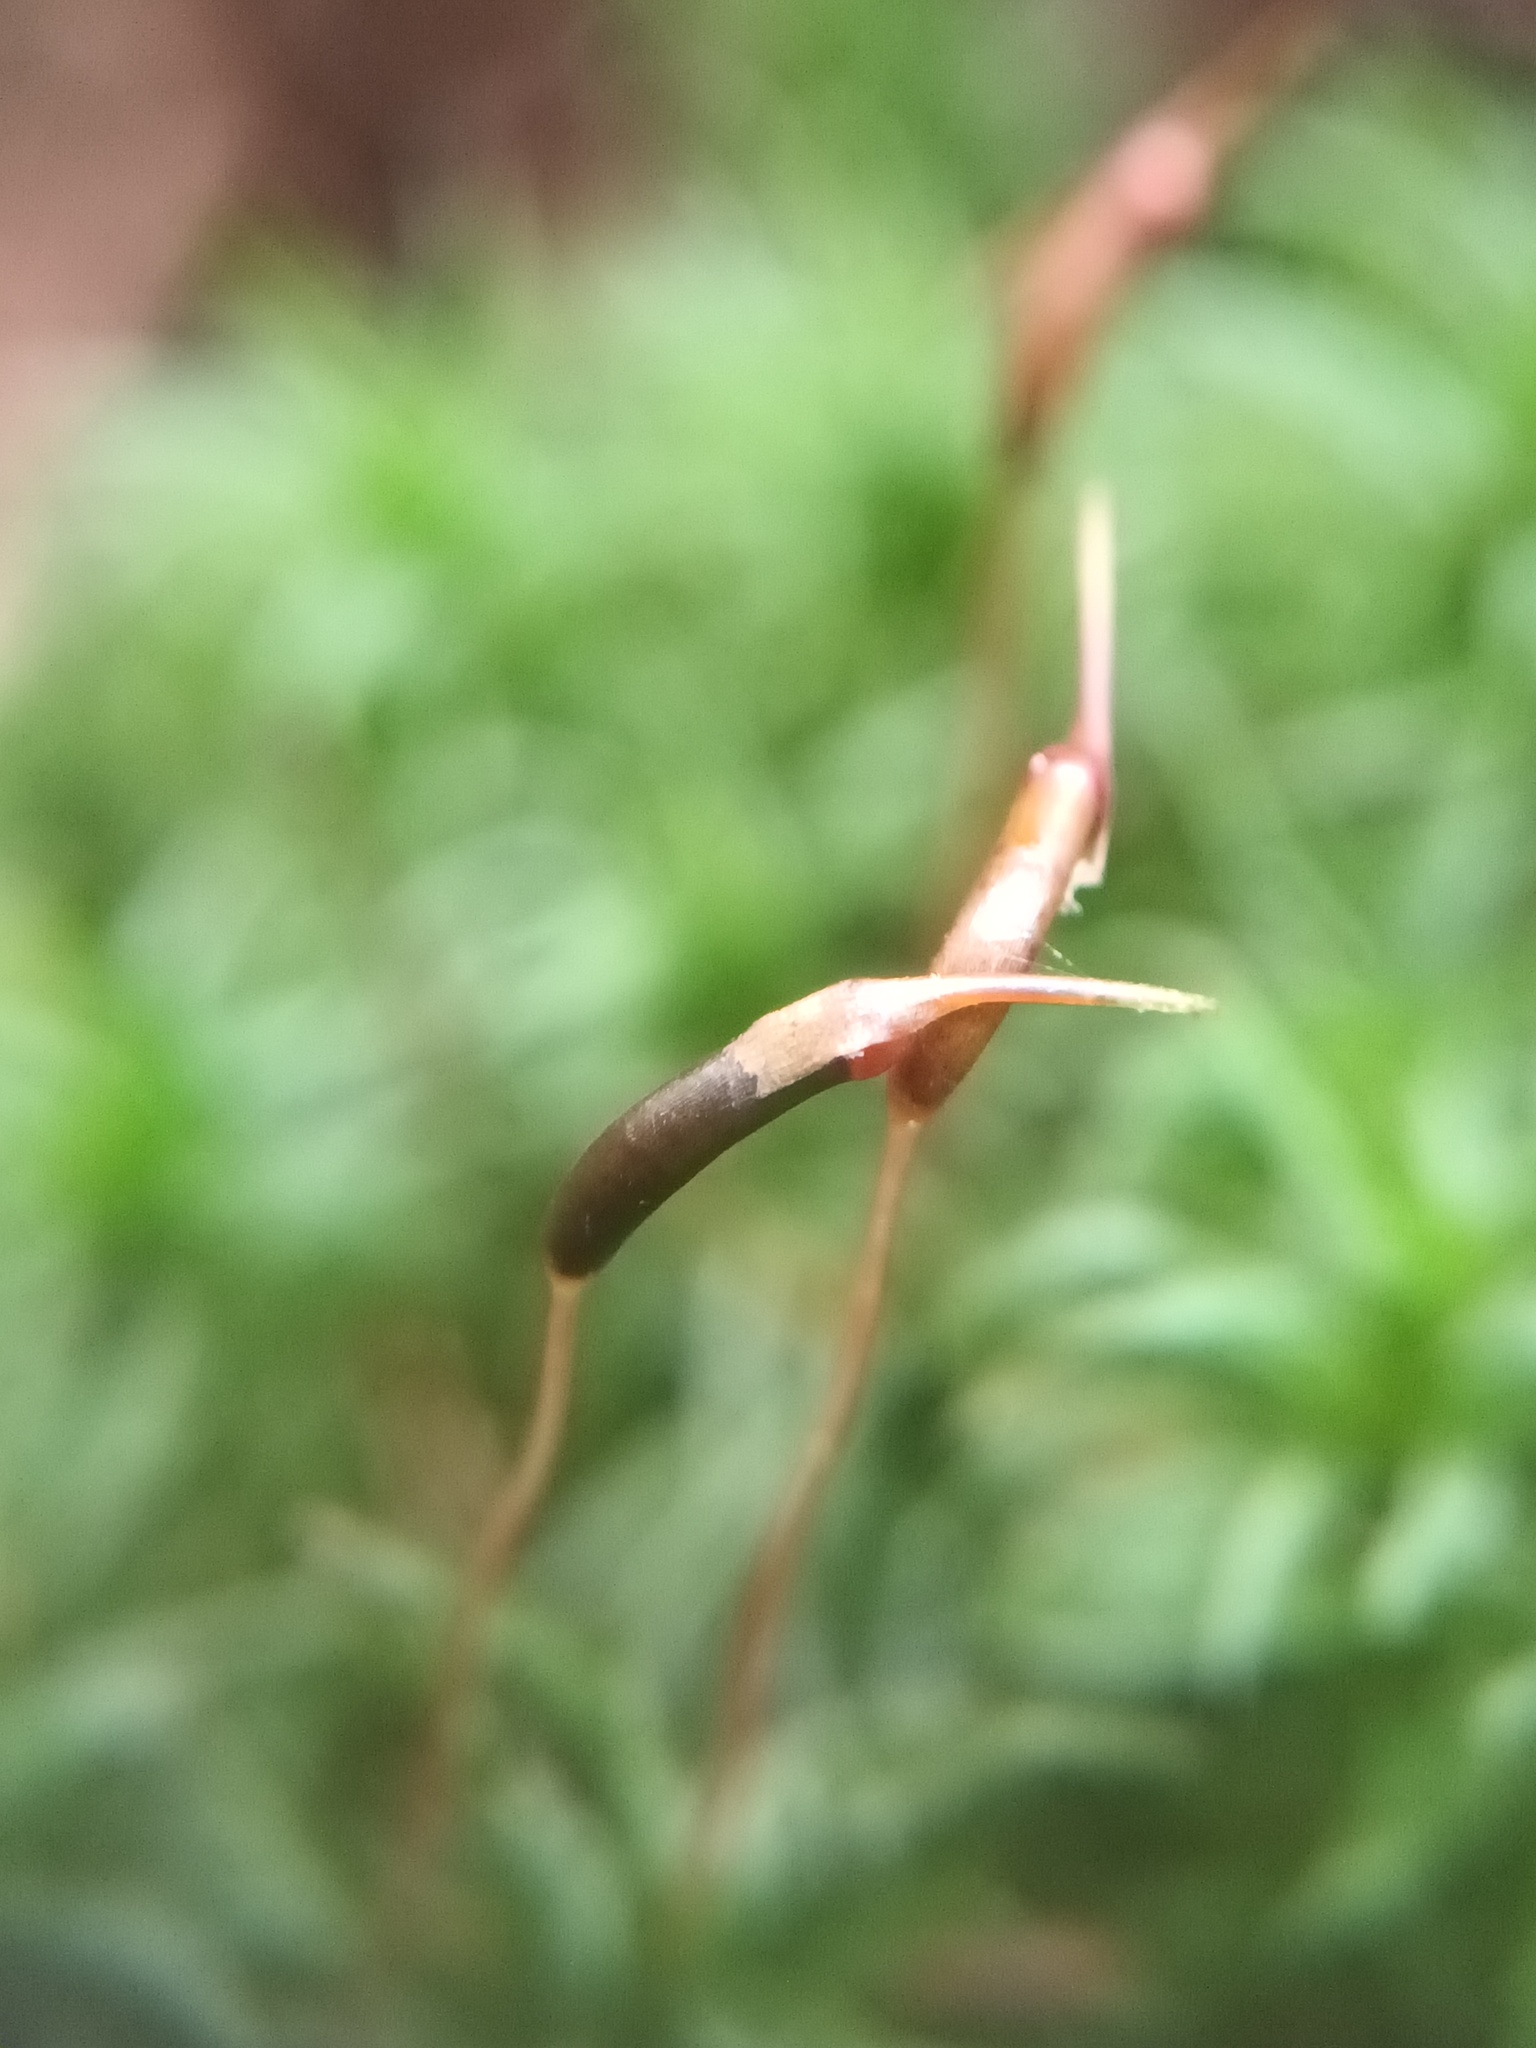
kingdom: Plantae
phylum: Bryophyta
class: Polytrichopsida
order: Polytrichales
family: Polytrichaceae
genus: Atrichum
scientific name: Atrichum undulatum
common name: Common smoothcap
